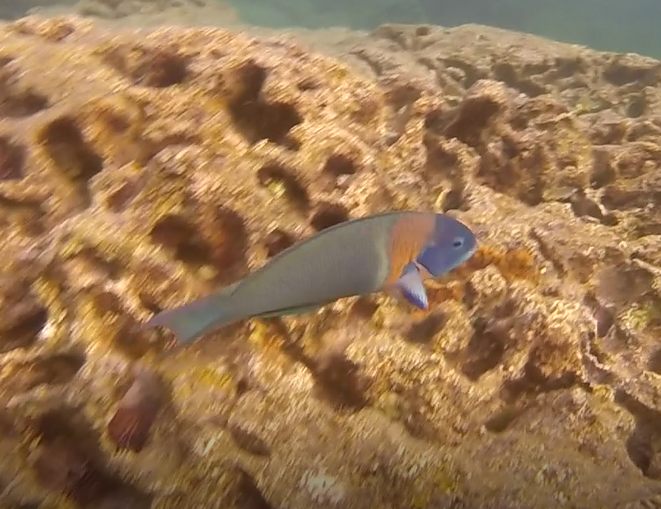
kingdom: Animalia
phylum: Chordata
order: Perciformes
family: Labridae
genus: Thalassoma
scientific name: Thalassoma duperrey
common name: Saddle wrasse
